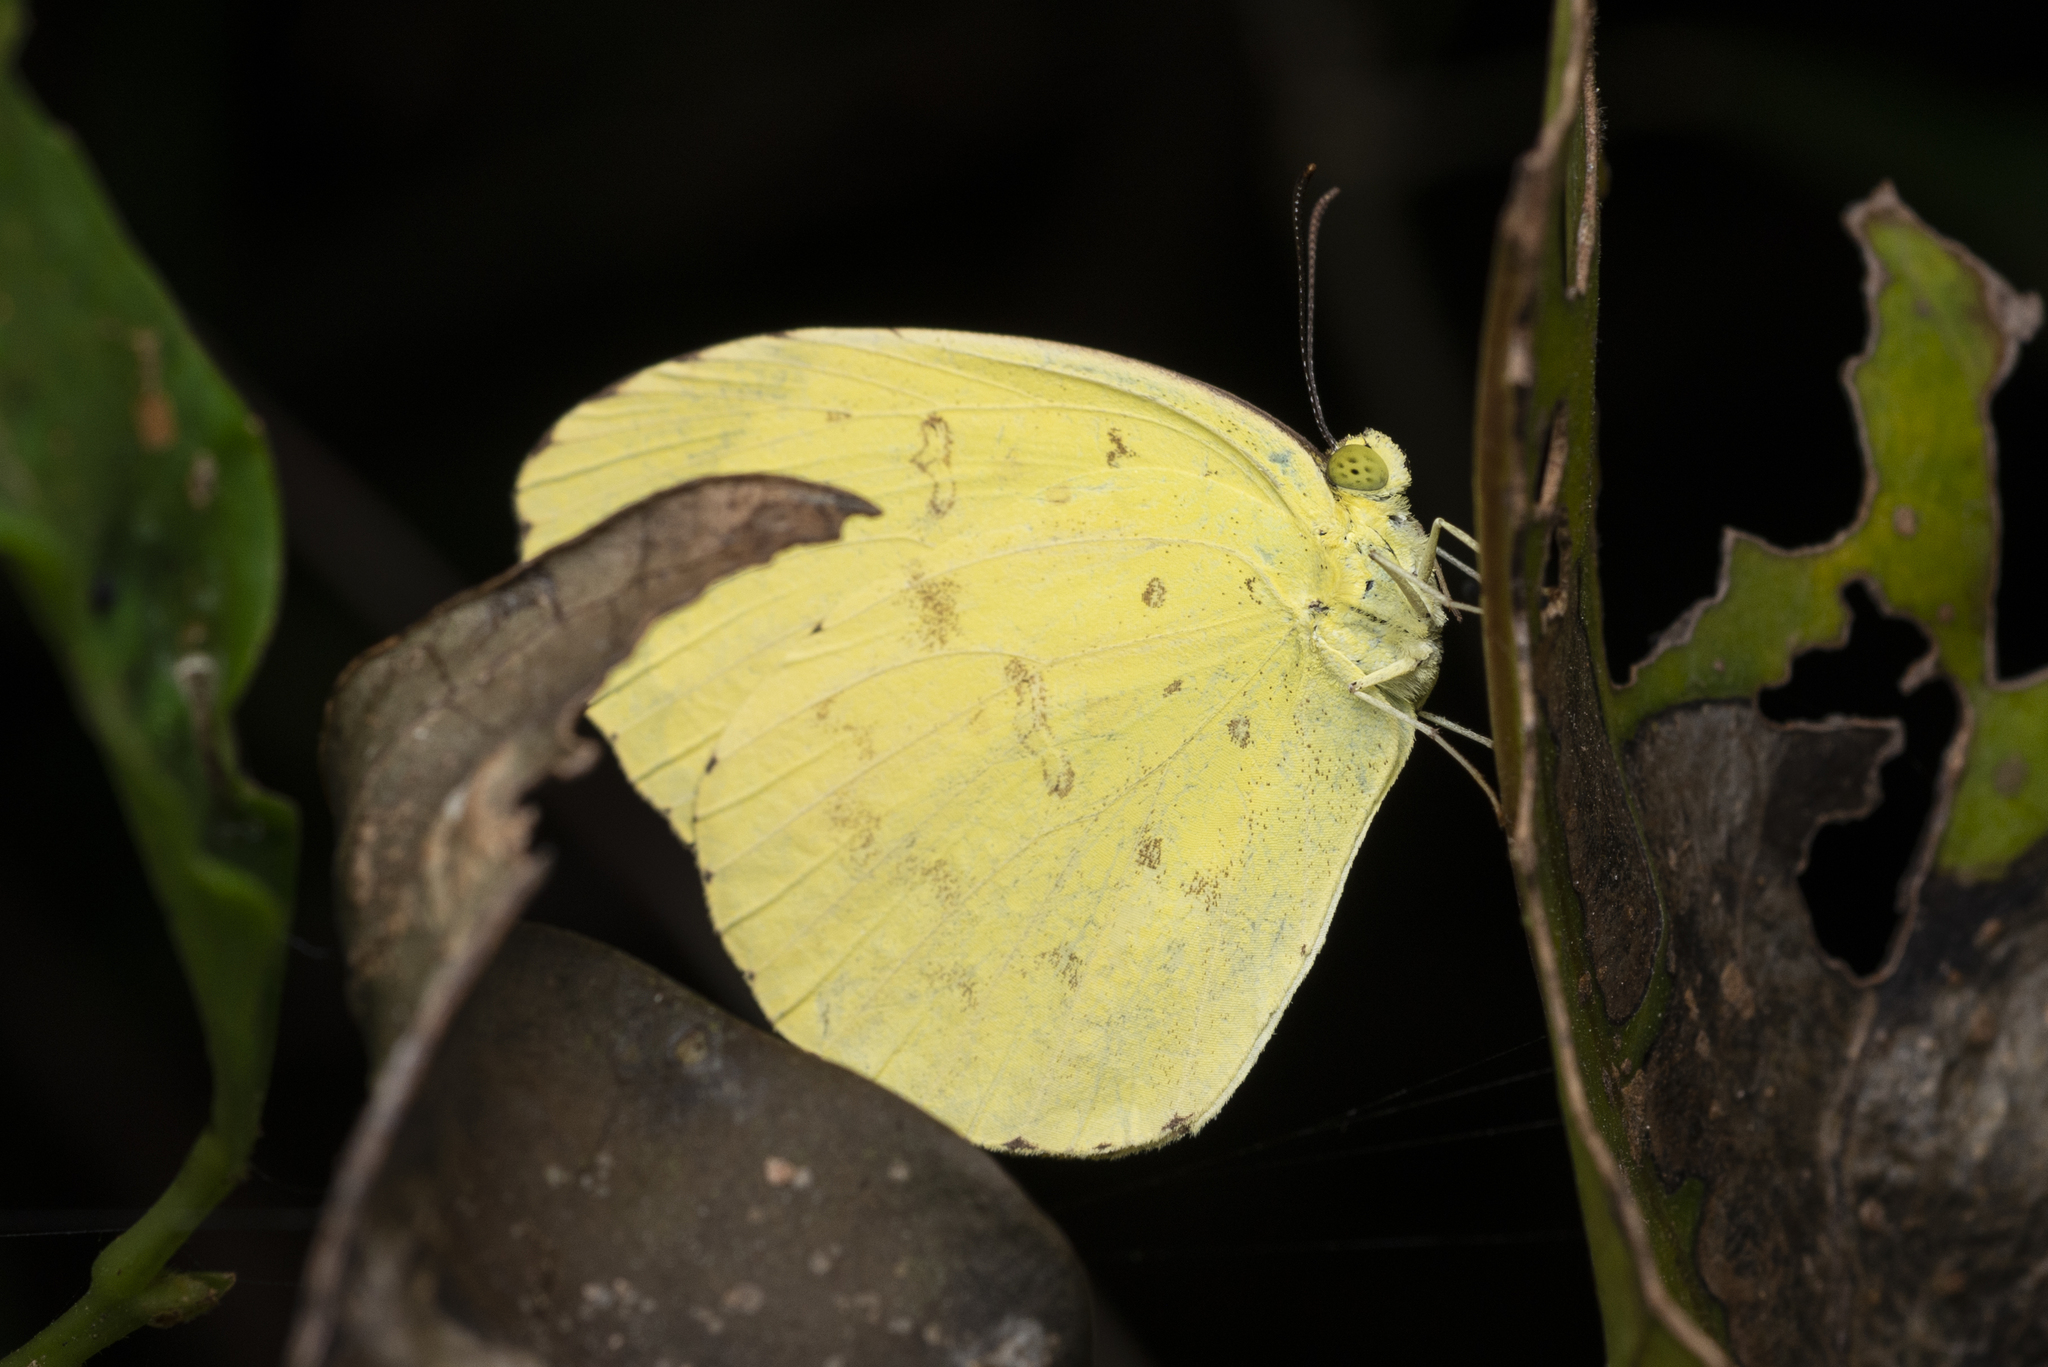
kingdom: Animalia
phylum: Arthropoda
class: Insecta
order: Lepidoptera
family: Pieridae
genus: Eurema
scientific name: Eurema hecabe
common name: Pale grass yellow
